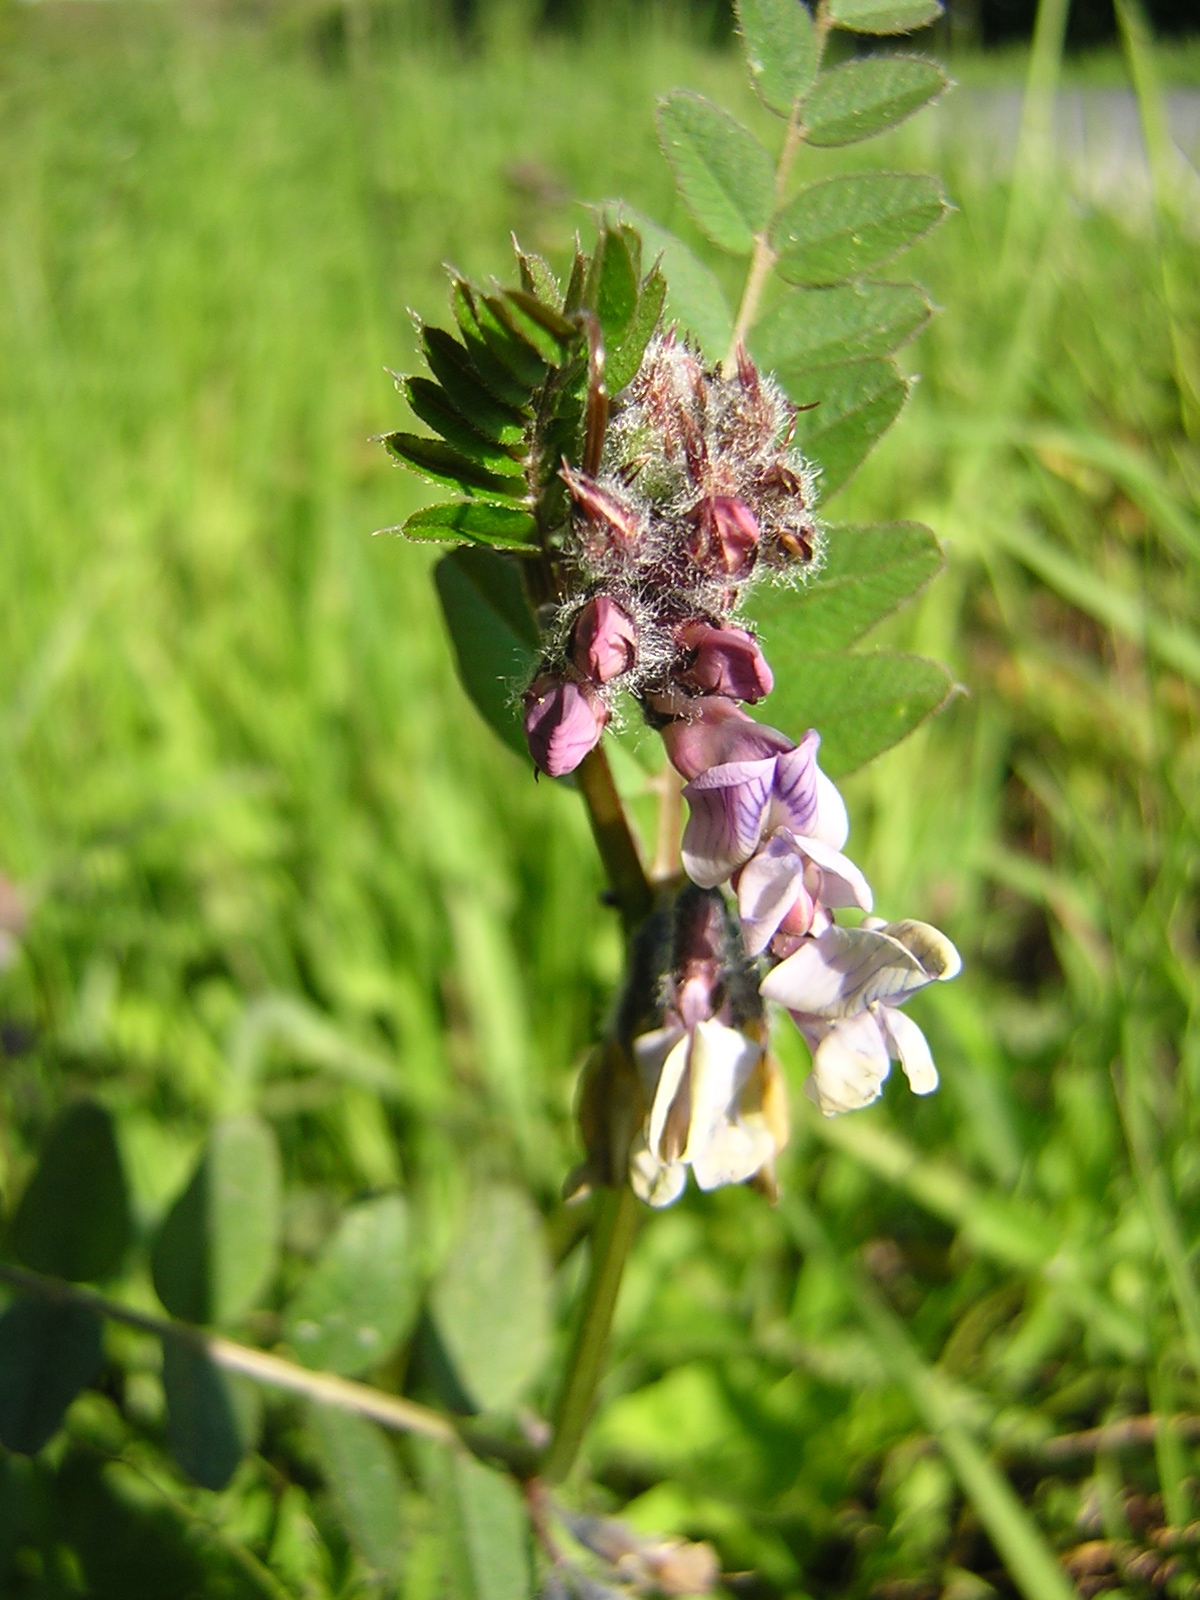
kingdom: Plantae
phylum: Tracheophyta
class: Magnoliopsida
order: Fabales
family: Fabaceae
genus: Vicia
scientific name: Vicia sepium
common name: Bush vetch
